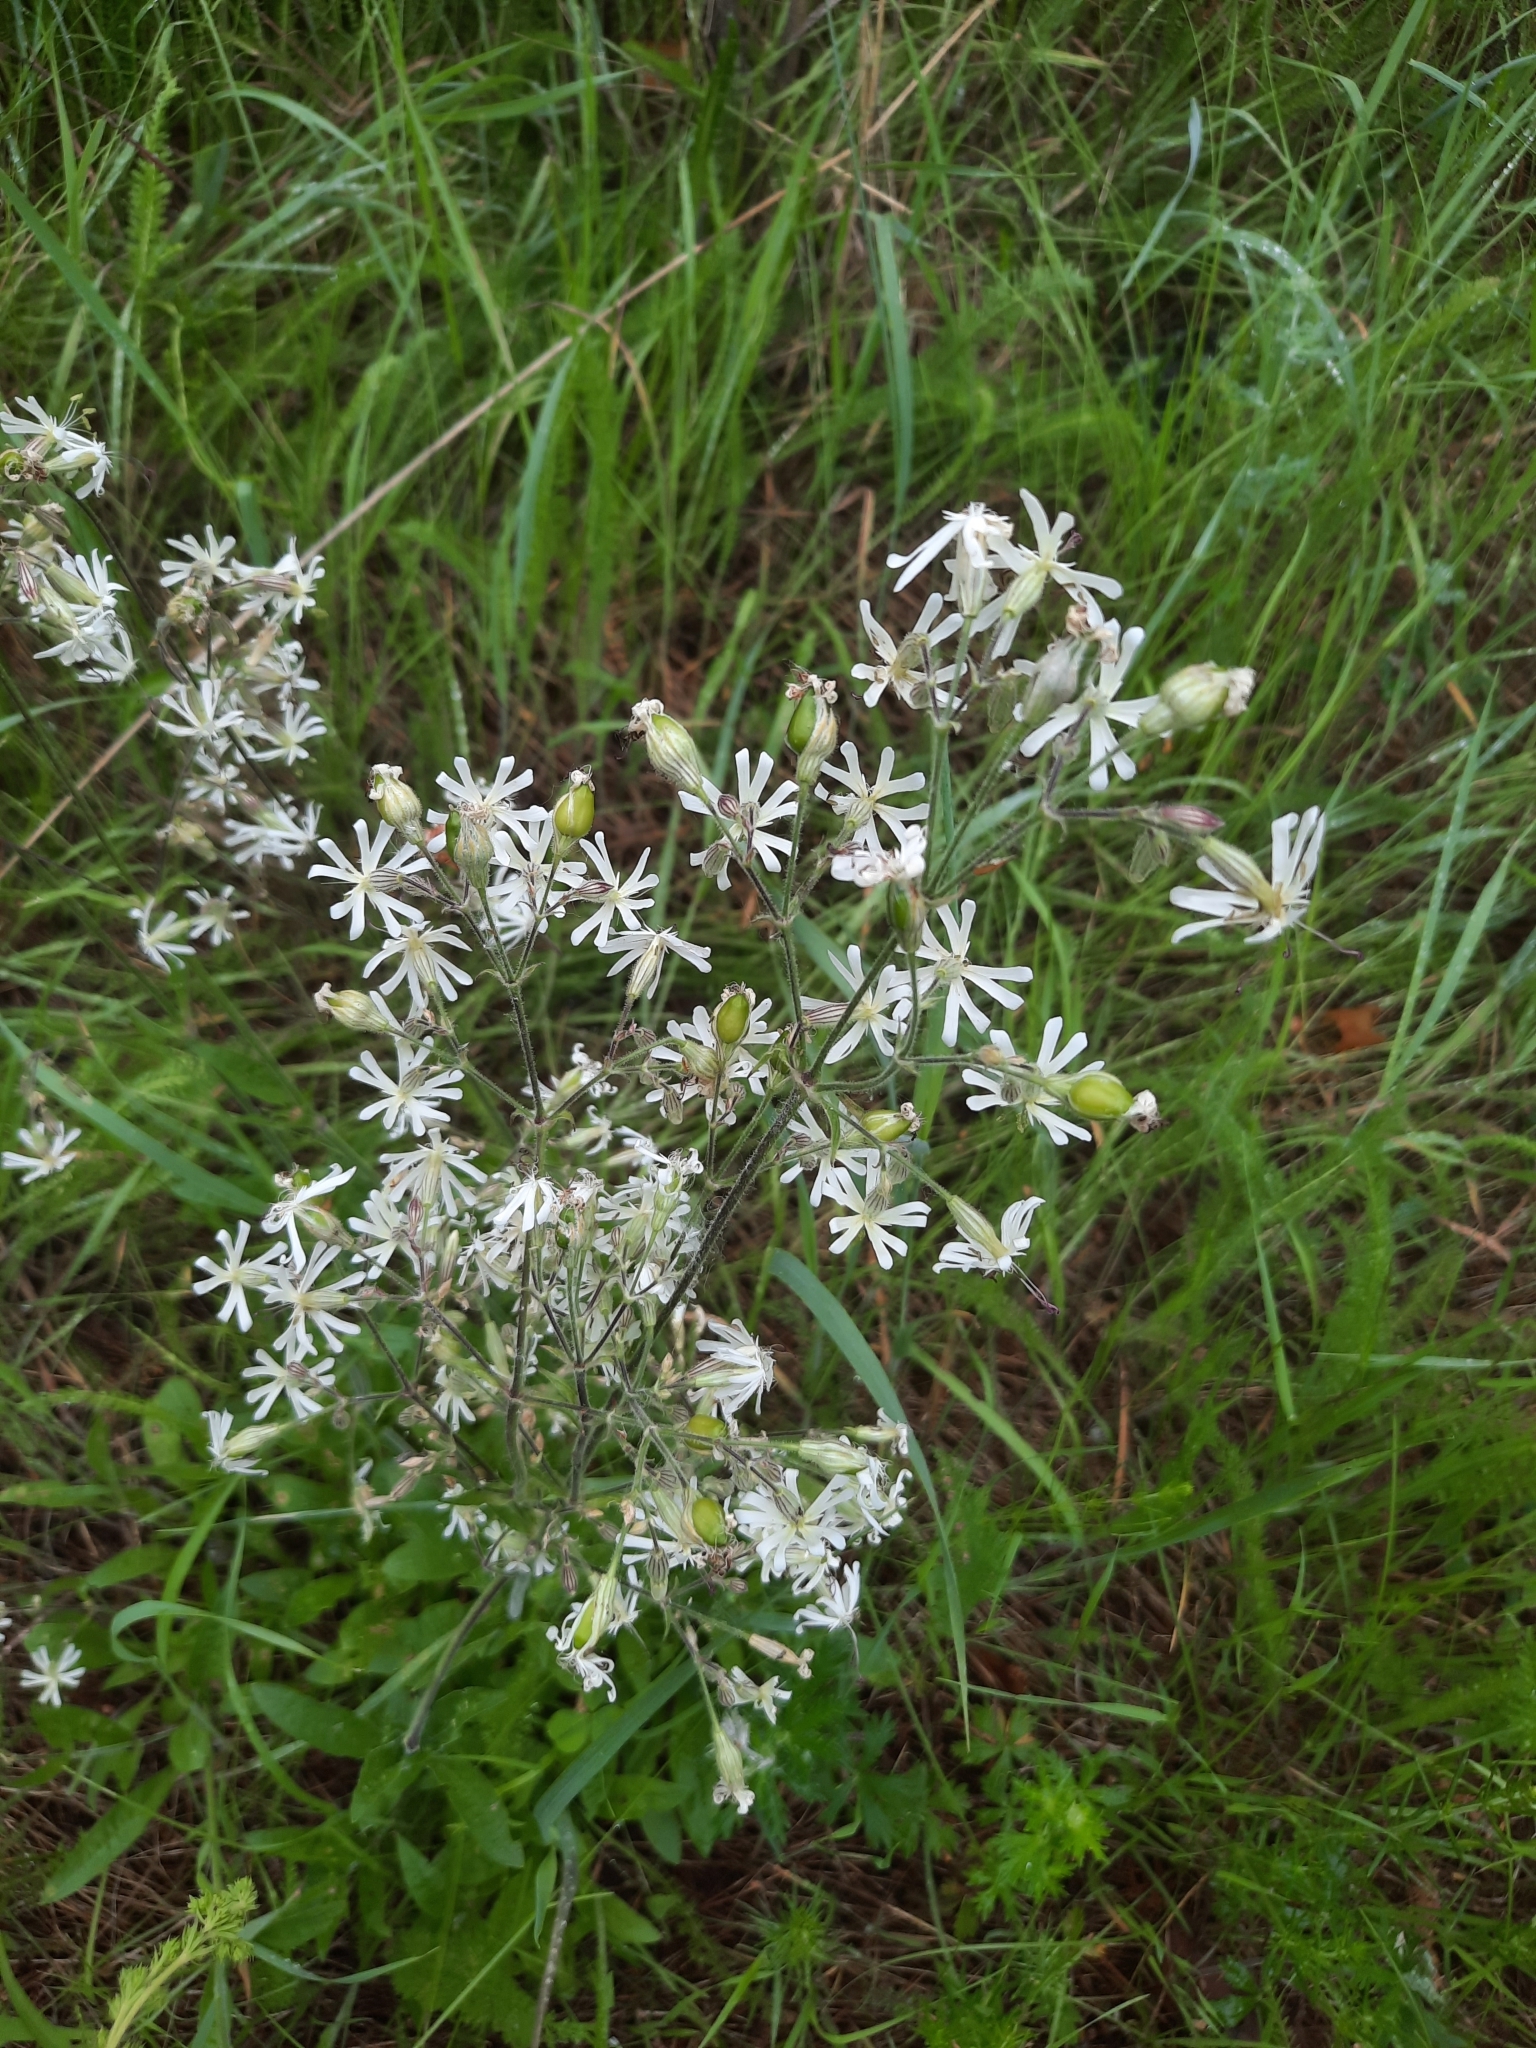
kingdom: Plantae
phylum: Tracheophyta
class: Magnoliopsida
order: Caryophyllales
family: Caryophyllaceae
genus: Silene
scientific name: Silene nutans
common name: Nottingham catchfly
